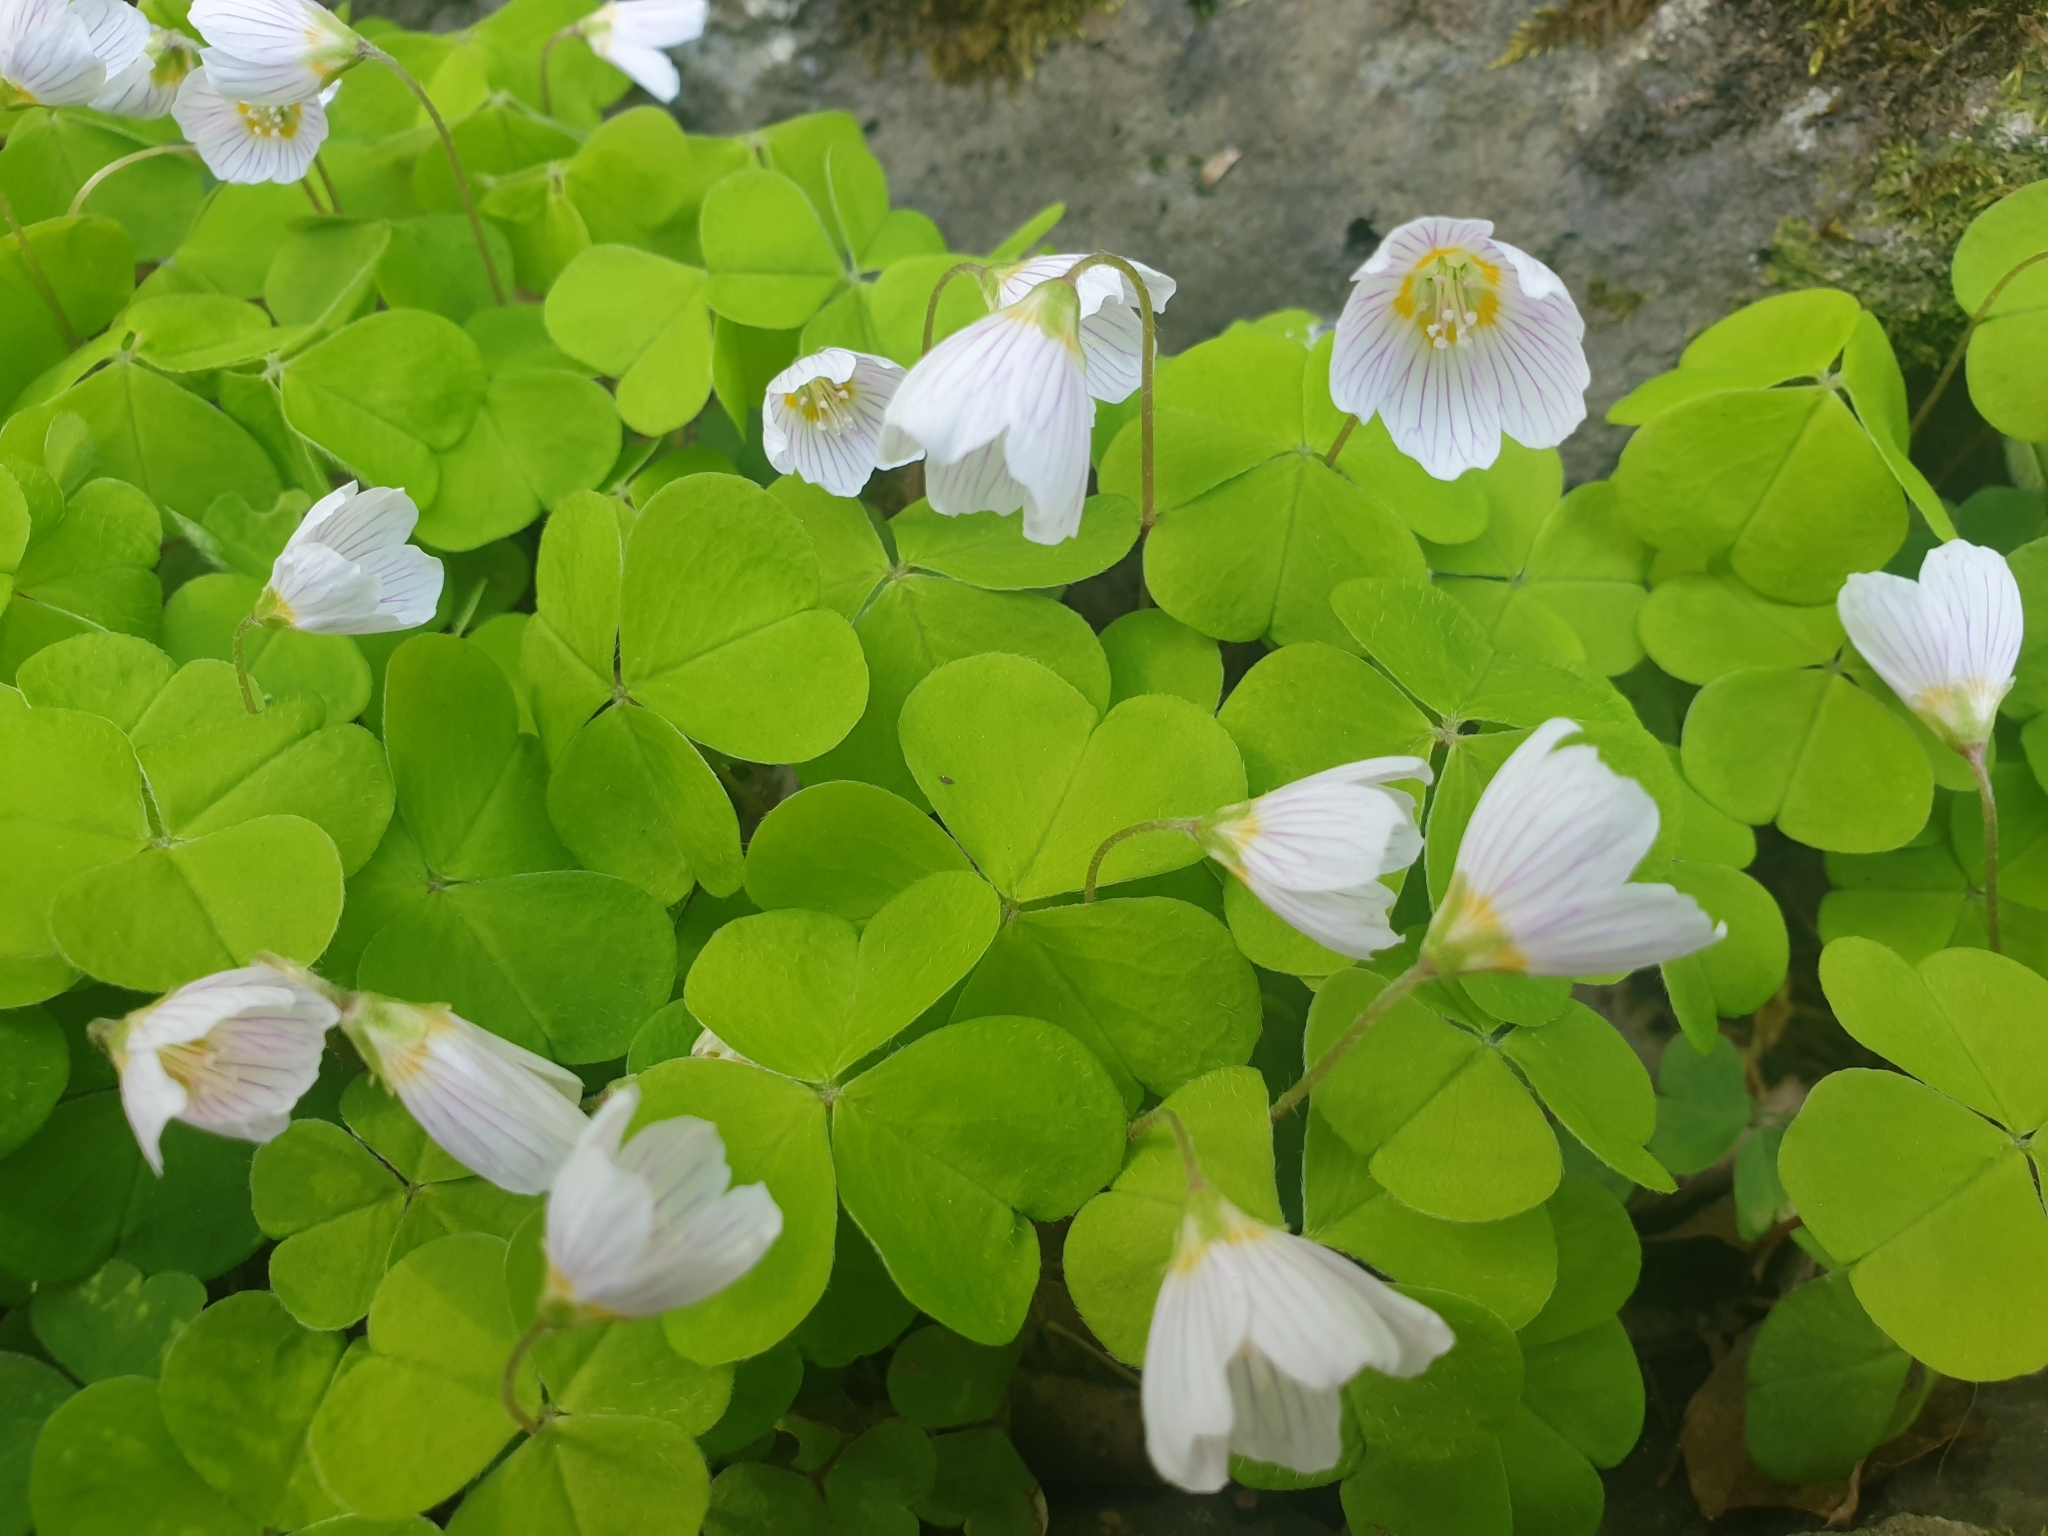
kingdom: Plantae
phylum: Tracheophyta
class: Magnoliopsida
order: Oxalidales
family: Oxalidaceae
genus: Oxalis
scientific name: Oxalis acetosella
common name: Wood-sorrel
